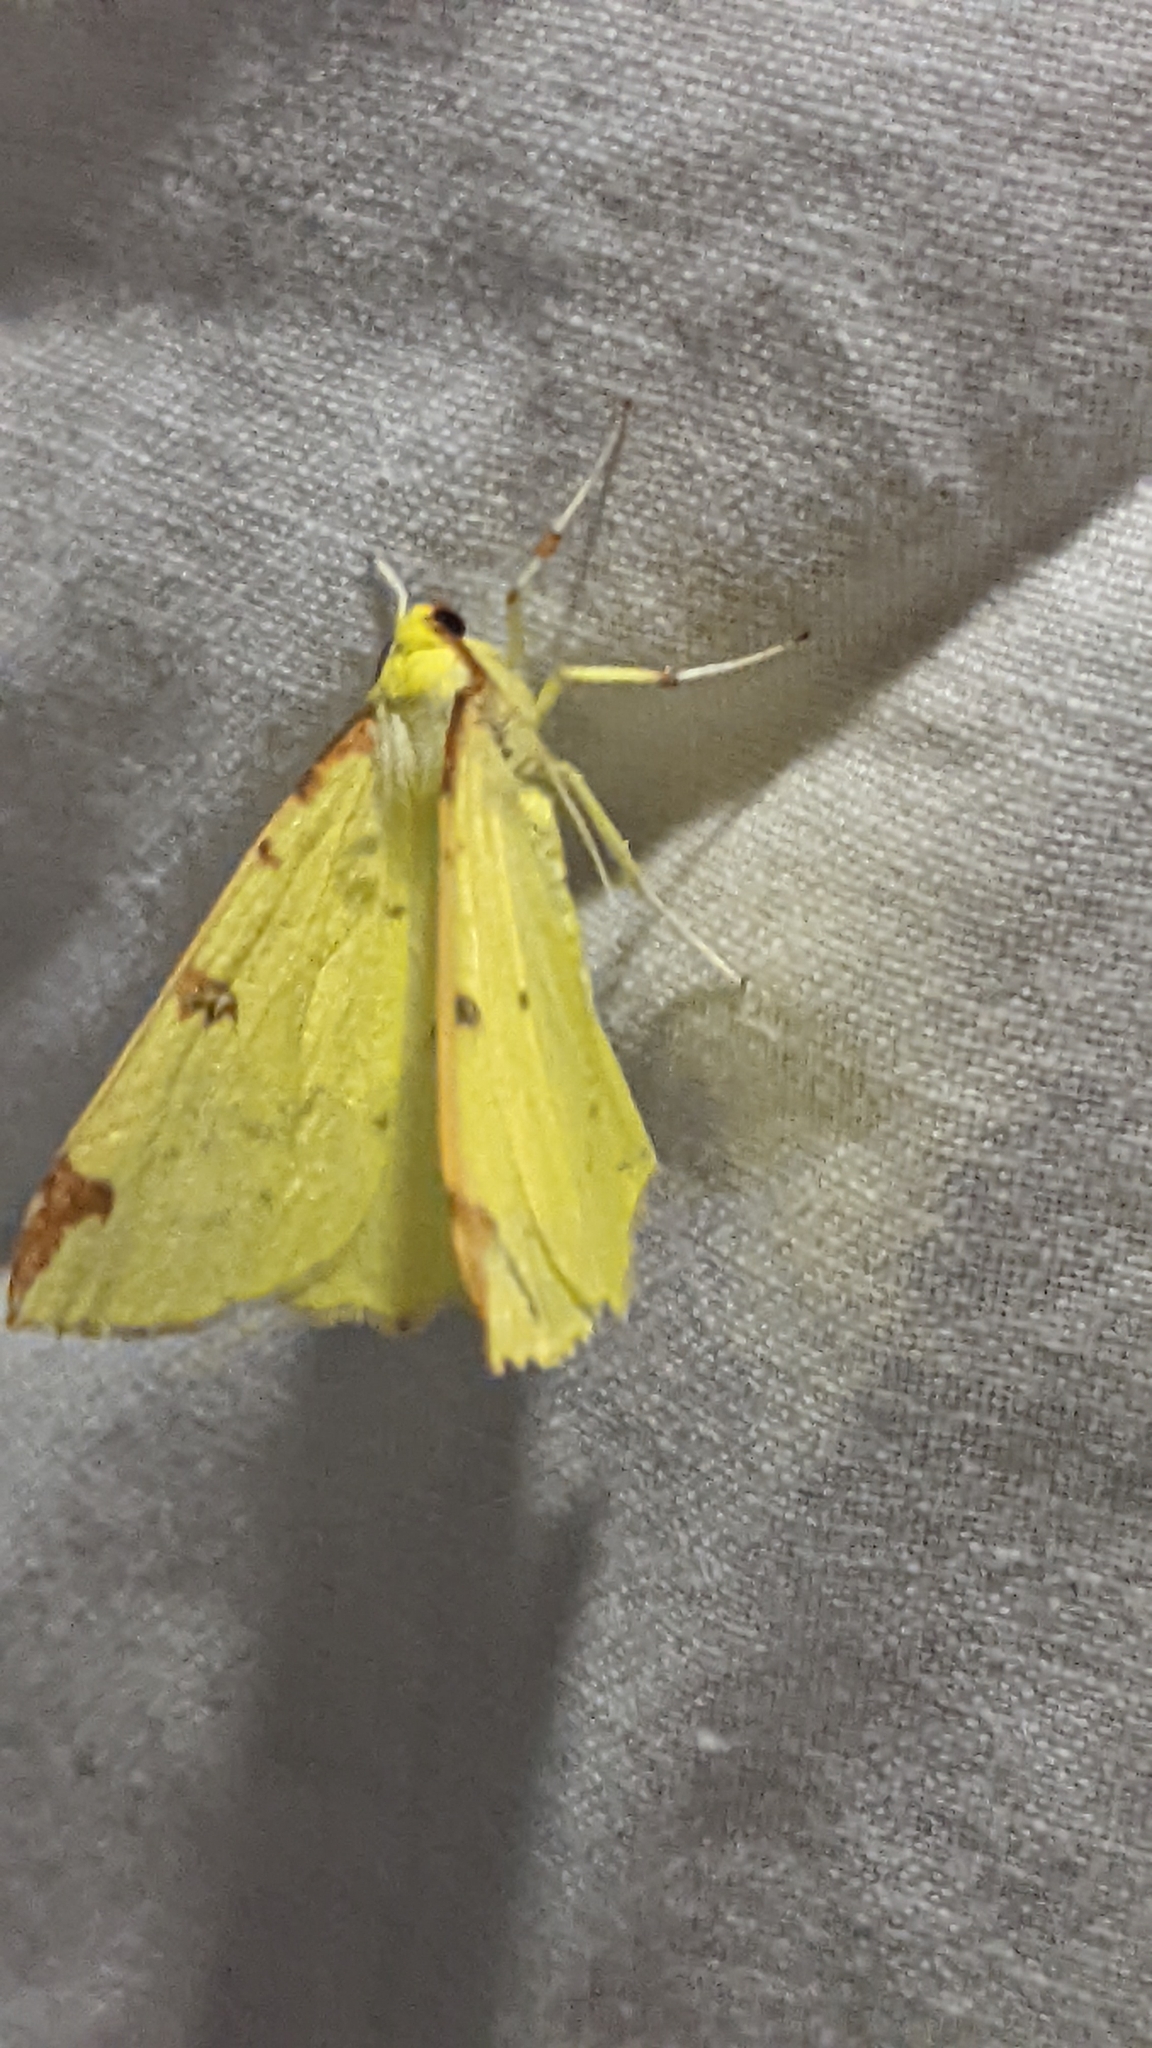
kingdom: Animalia
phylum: Arthropoda
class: Insecta
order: Lepidoptera
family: Geometridae
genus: Opisthograptis
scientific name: Opisthograptis luteolata
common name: Brimstone moth
